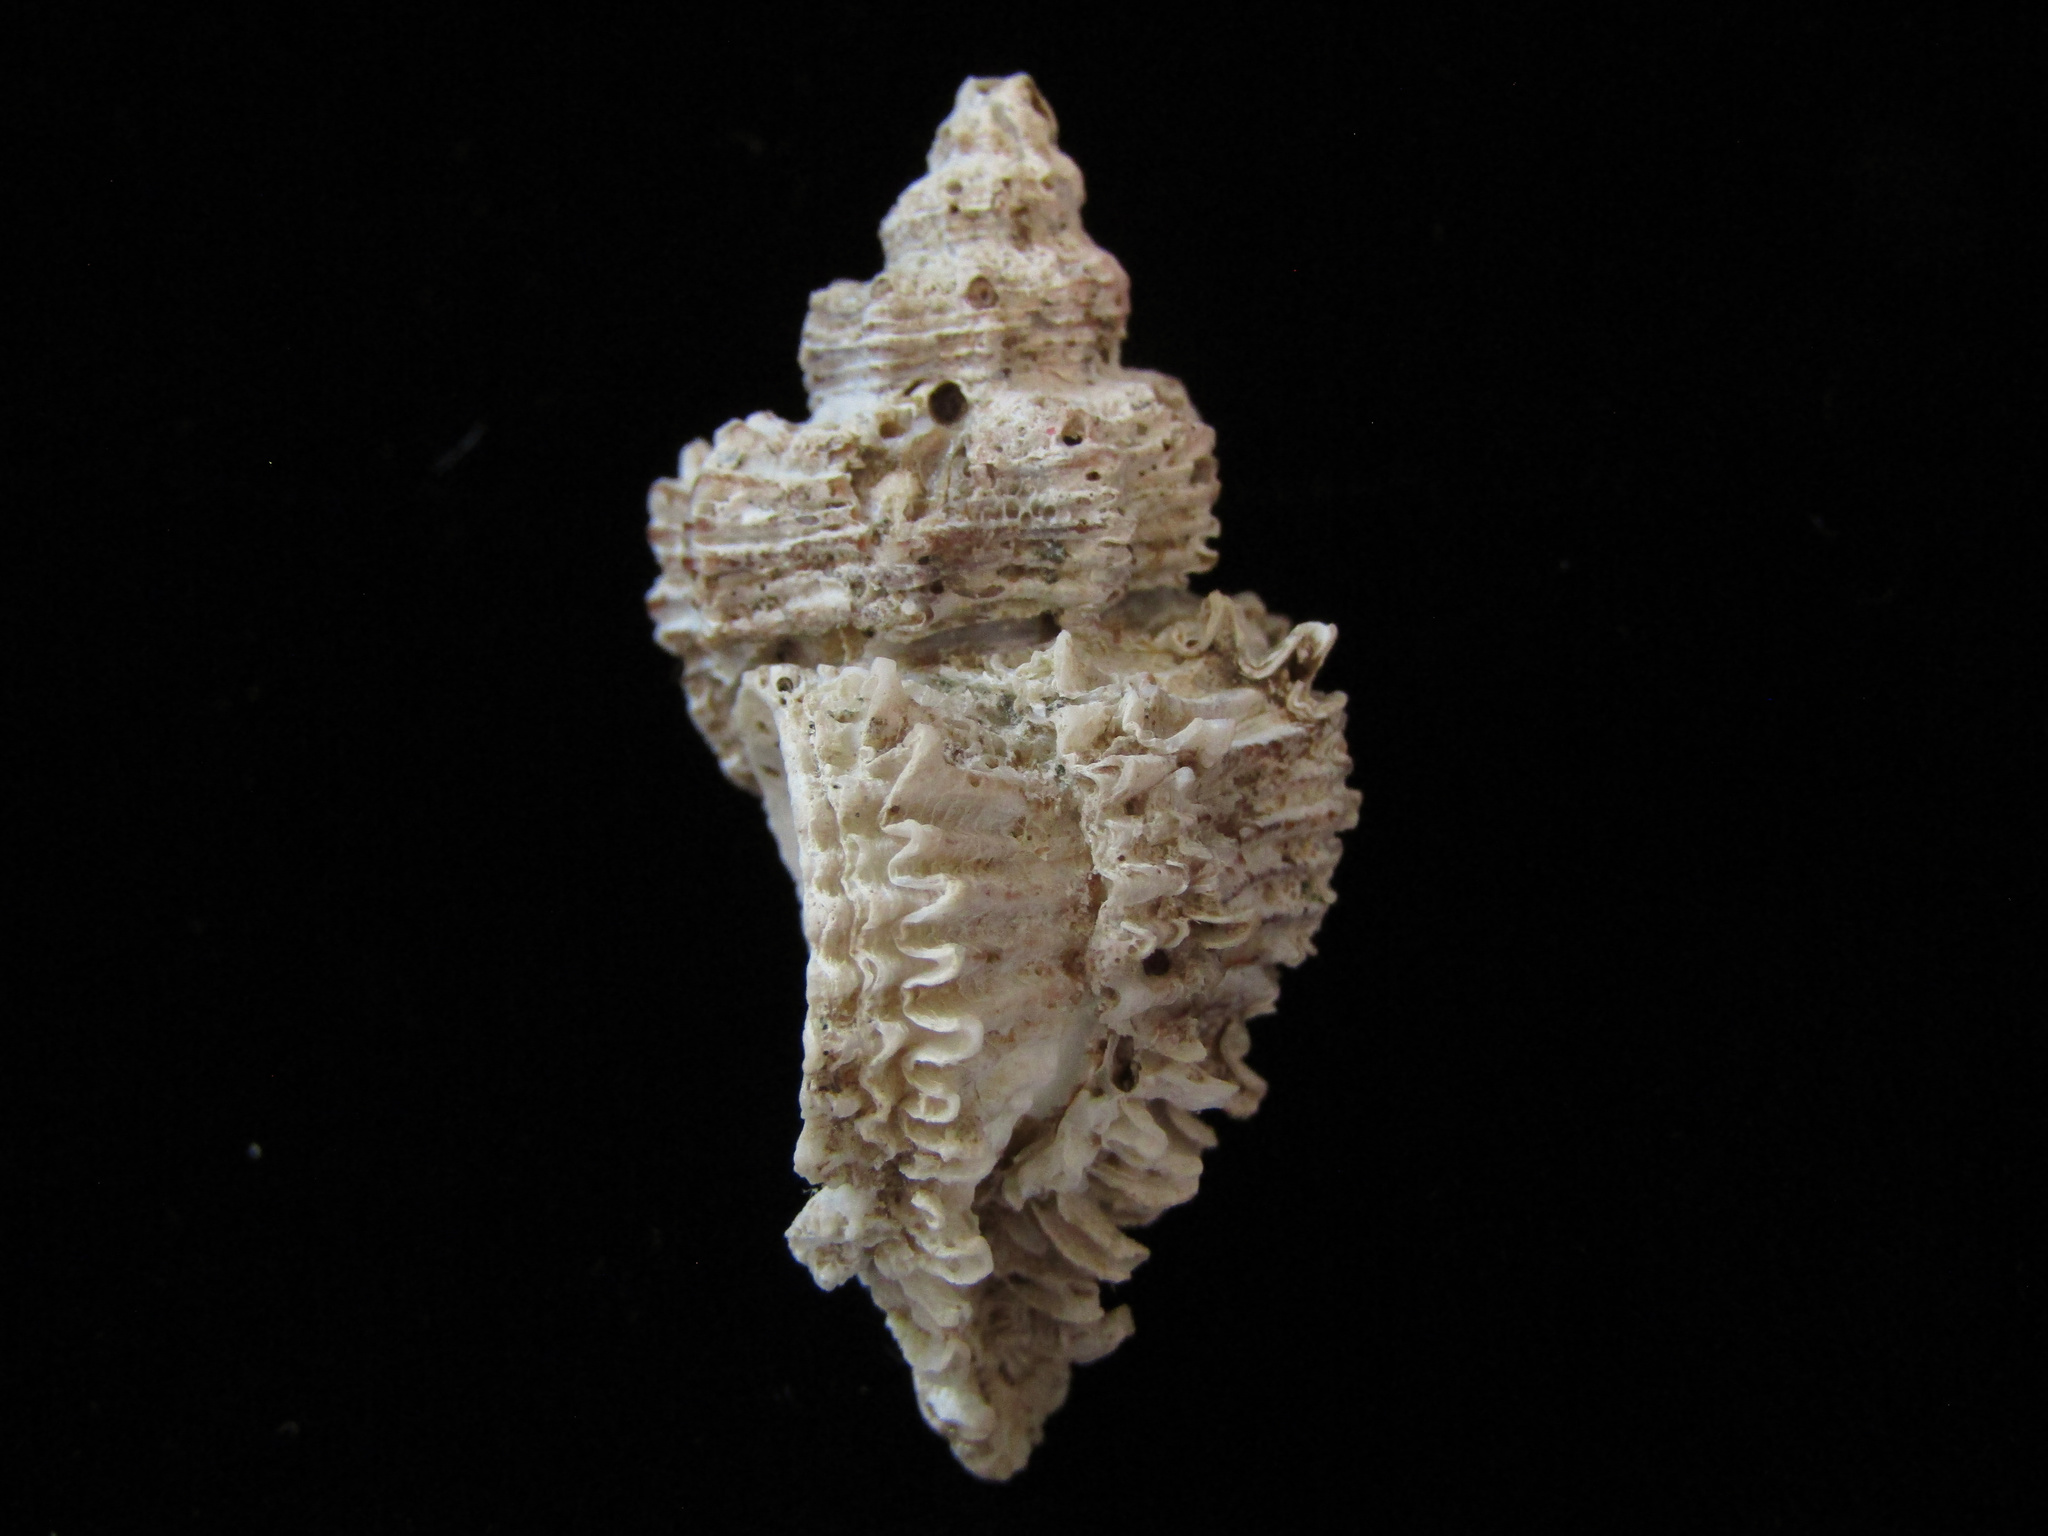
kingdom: Animalia
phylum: Mollusca
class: Gastropoda
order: Neogastropoda
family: Muricidae
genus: Murexsul
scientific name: Murexsul octogonus
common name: Octagon murex
